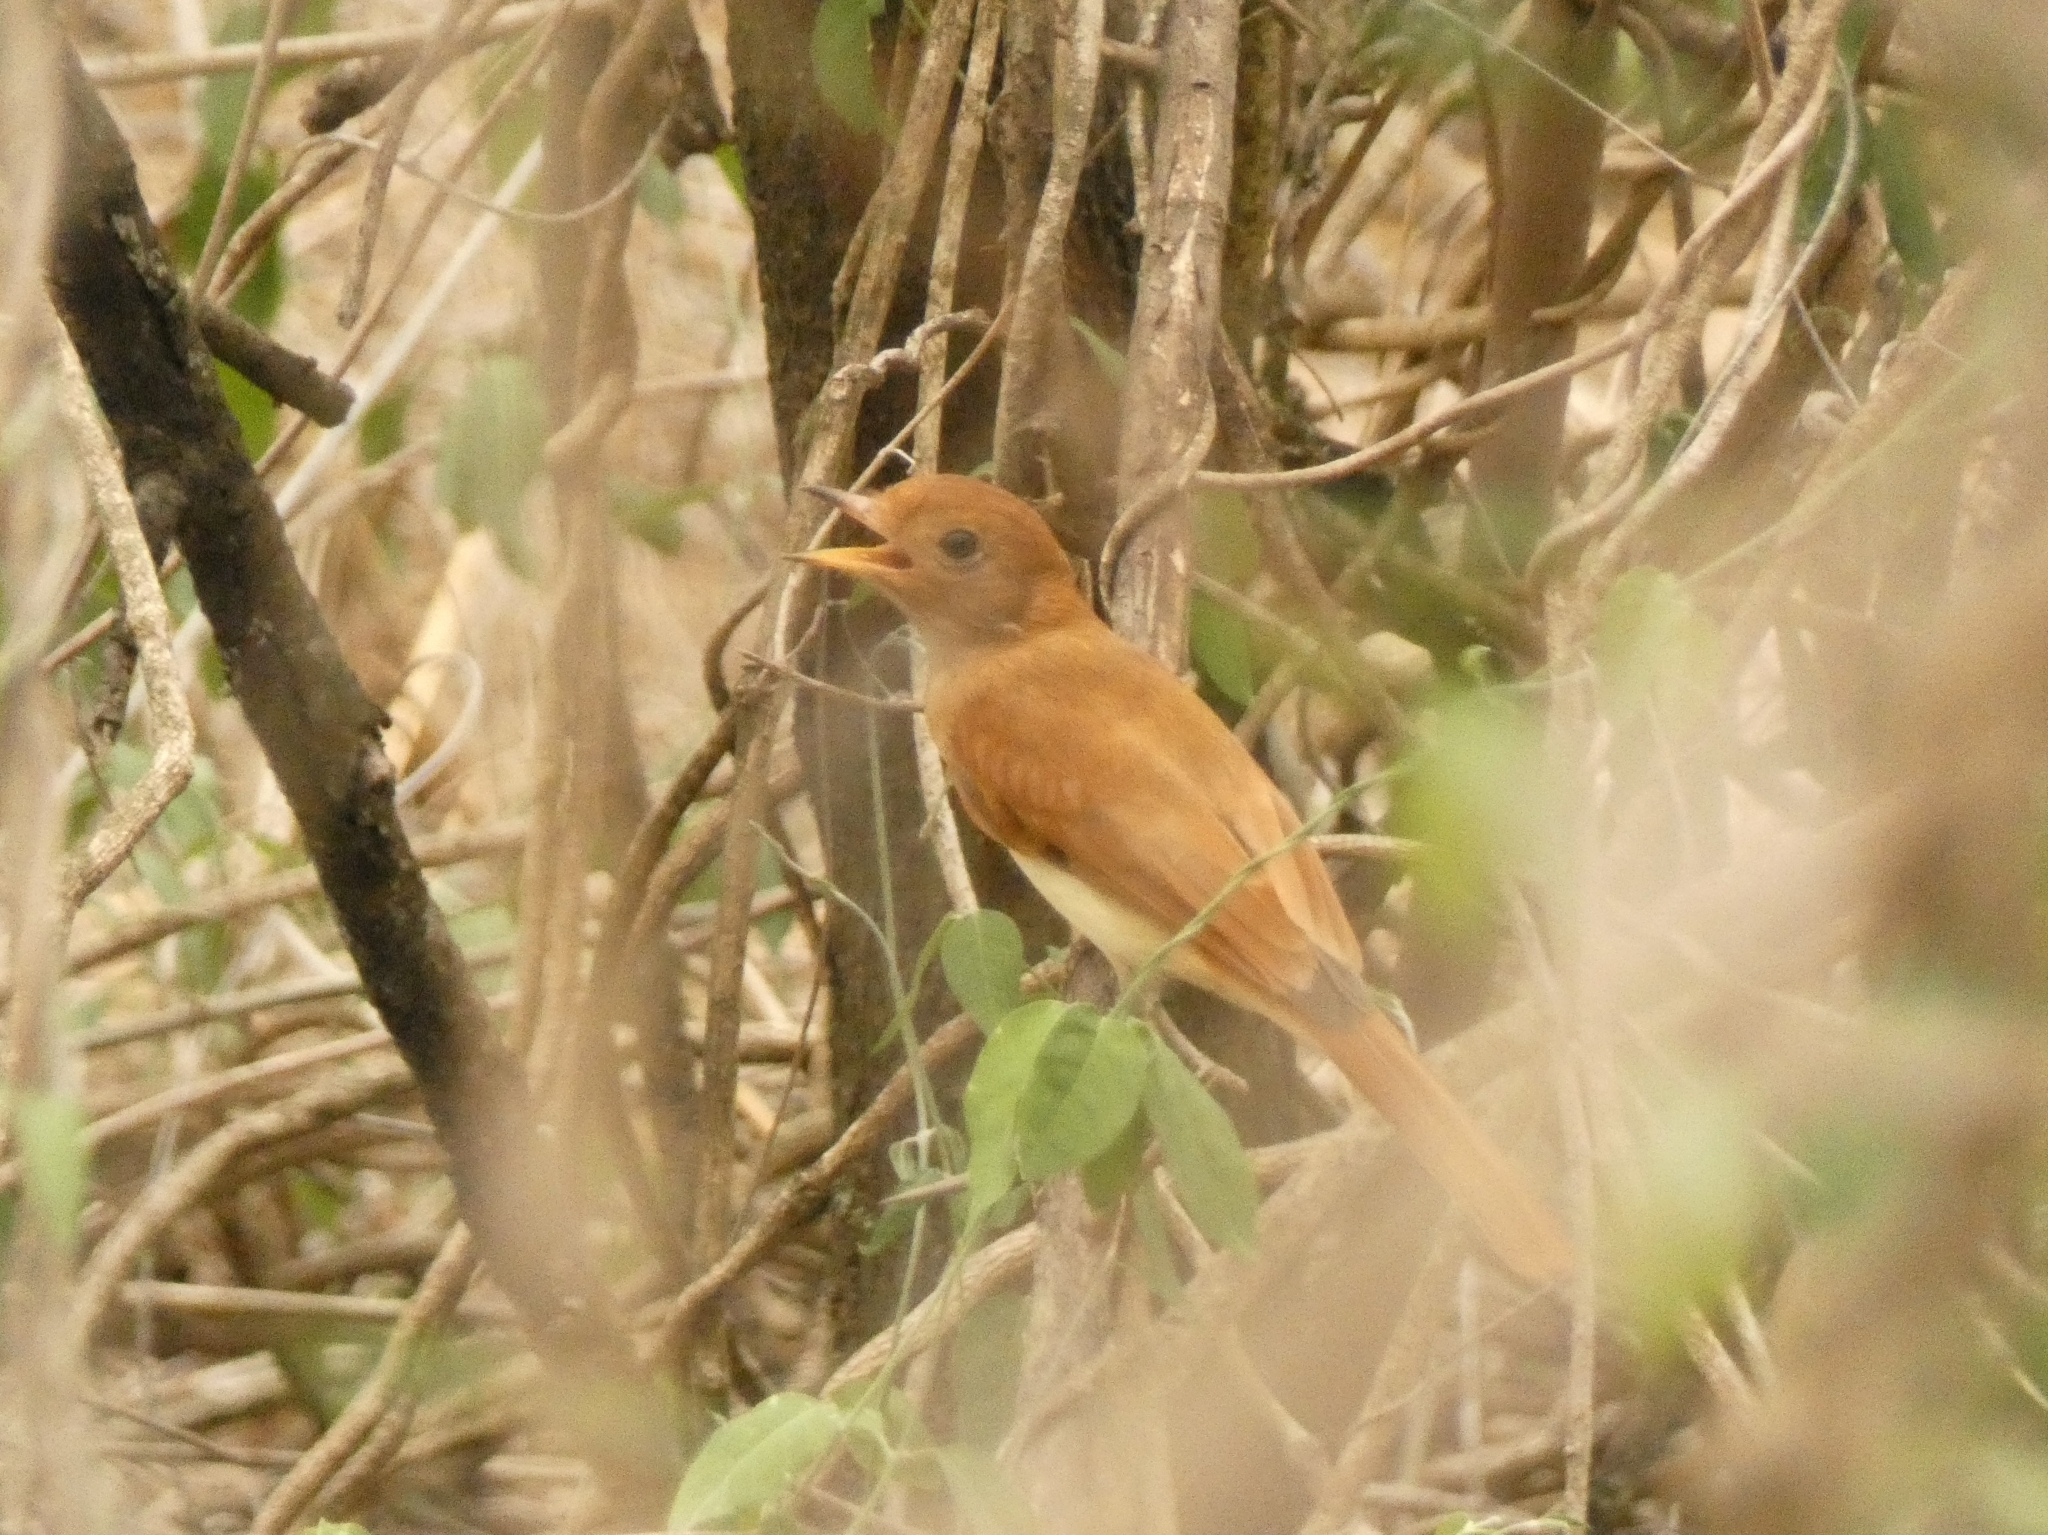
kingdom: Animalia
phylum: Chordata
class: Aves
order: Passeriformes
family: Tyrannidae
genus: Casiornis
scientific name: Casiornis rufus
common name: Rufous casiornis
